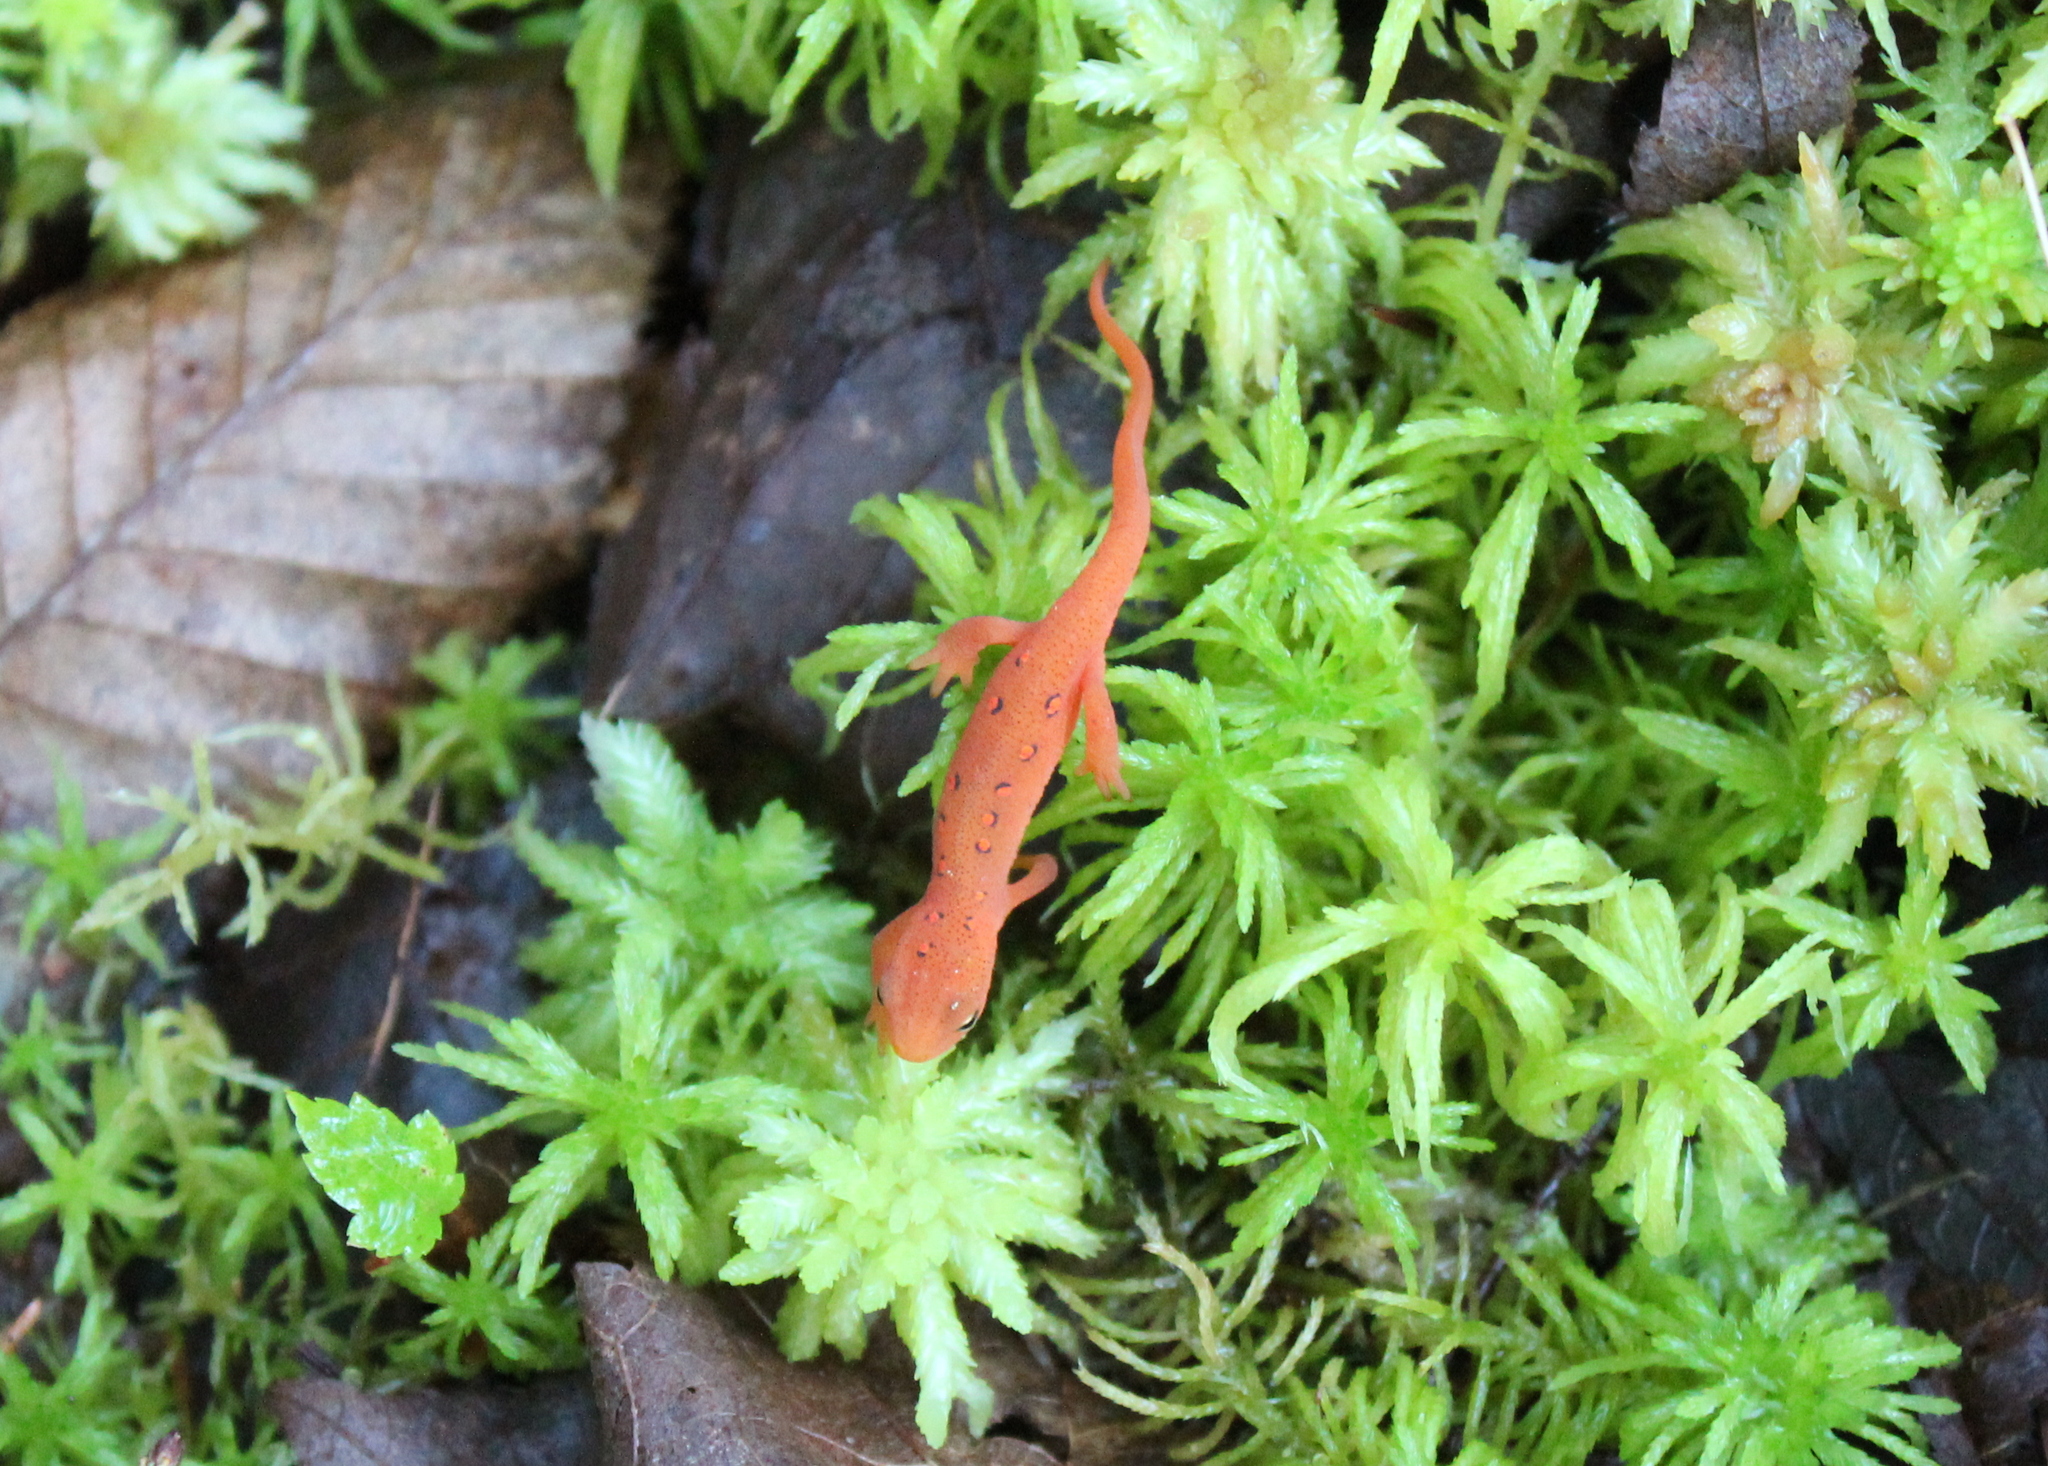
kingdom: Animalia
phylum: Chordata
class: Amphibia
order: Caudata
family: Salamandridae
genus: Notophthalmus
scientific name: Notophthalmus viridescens
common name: Eastern newt
